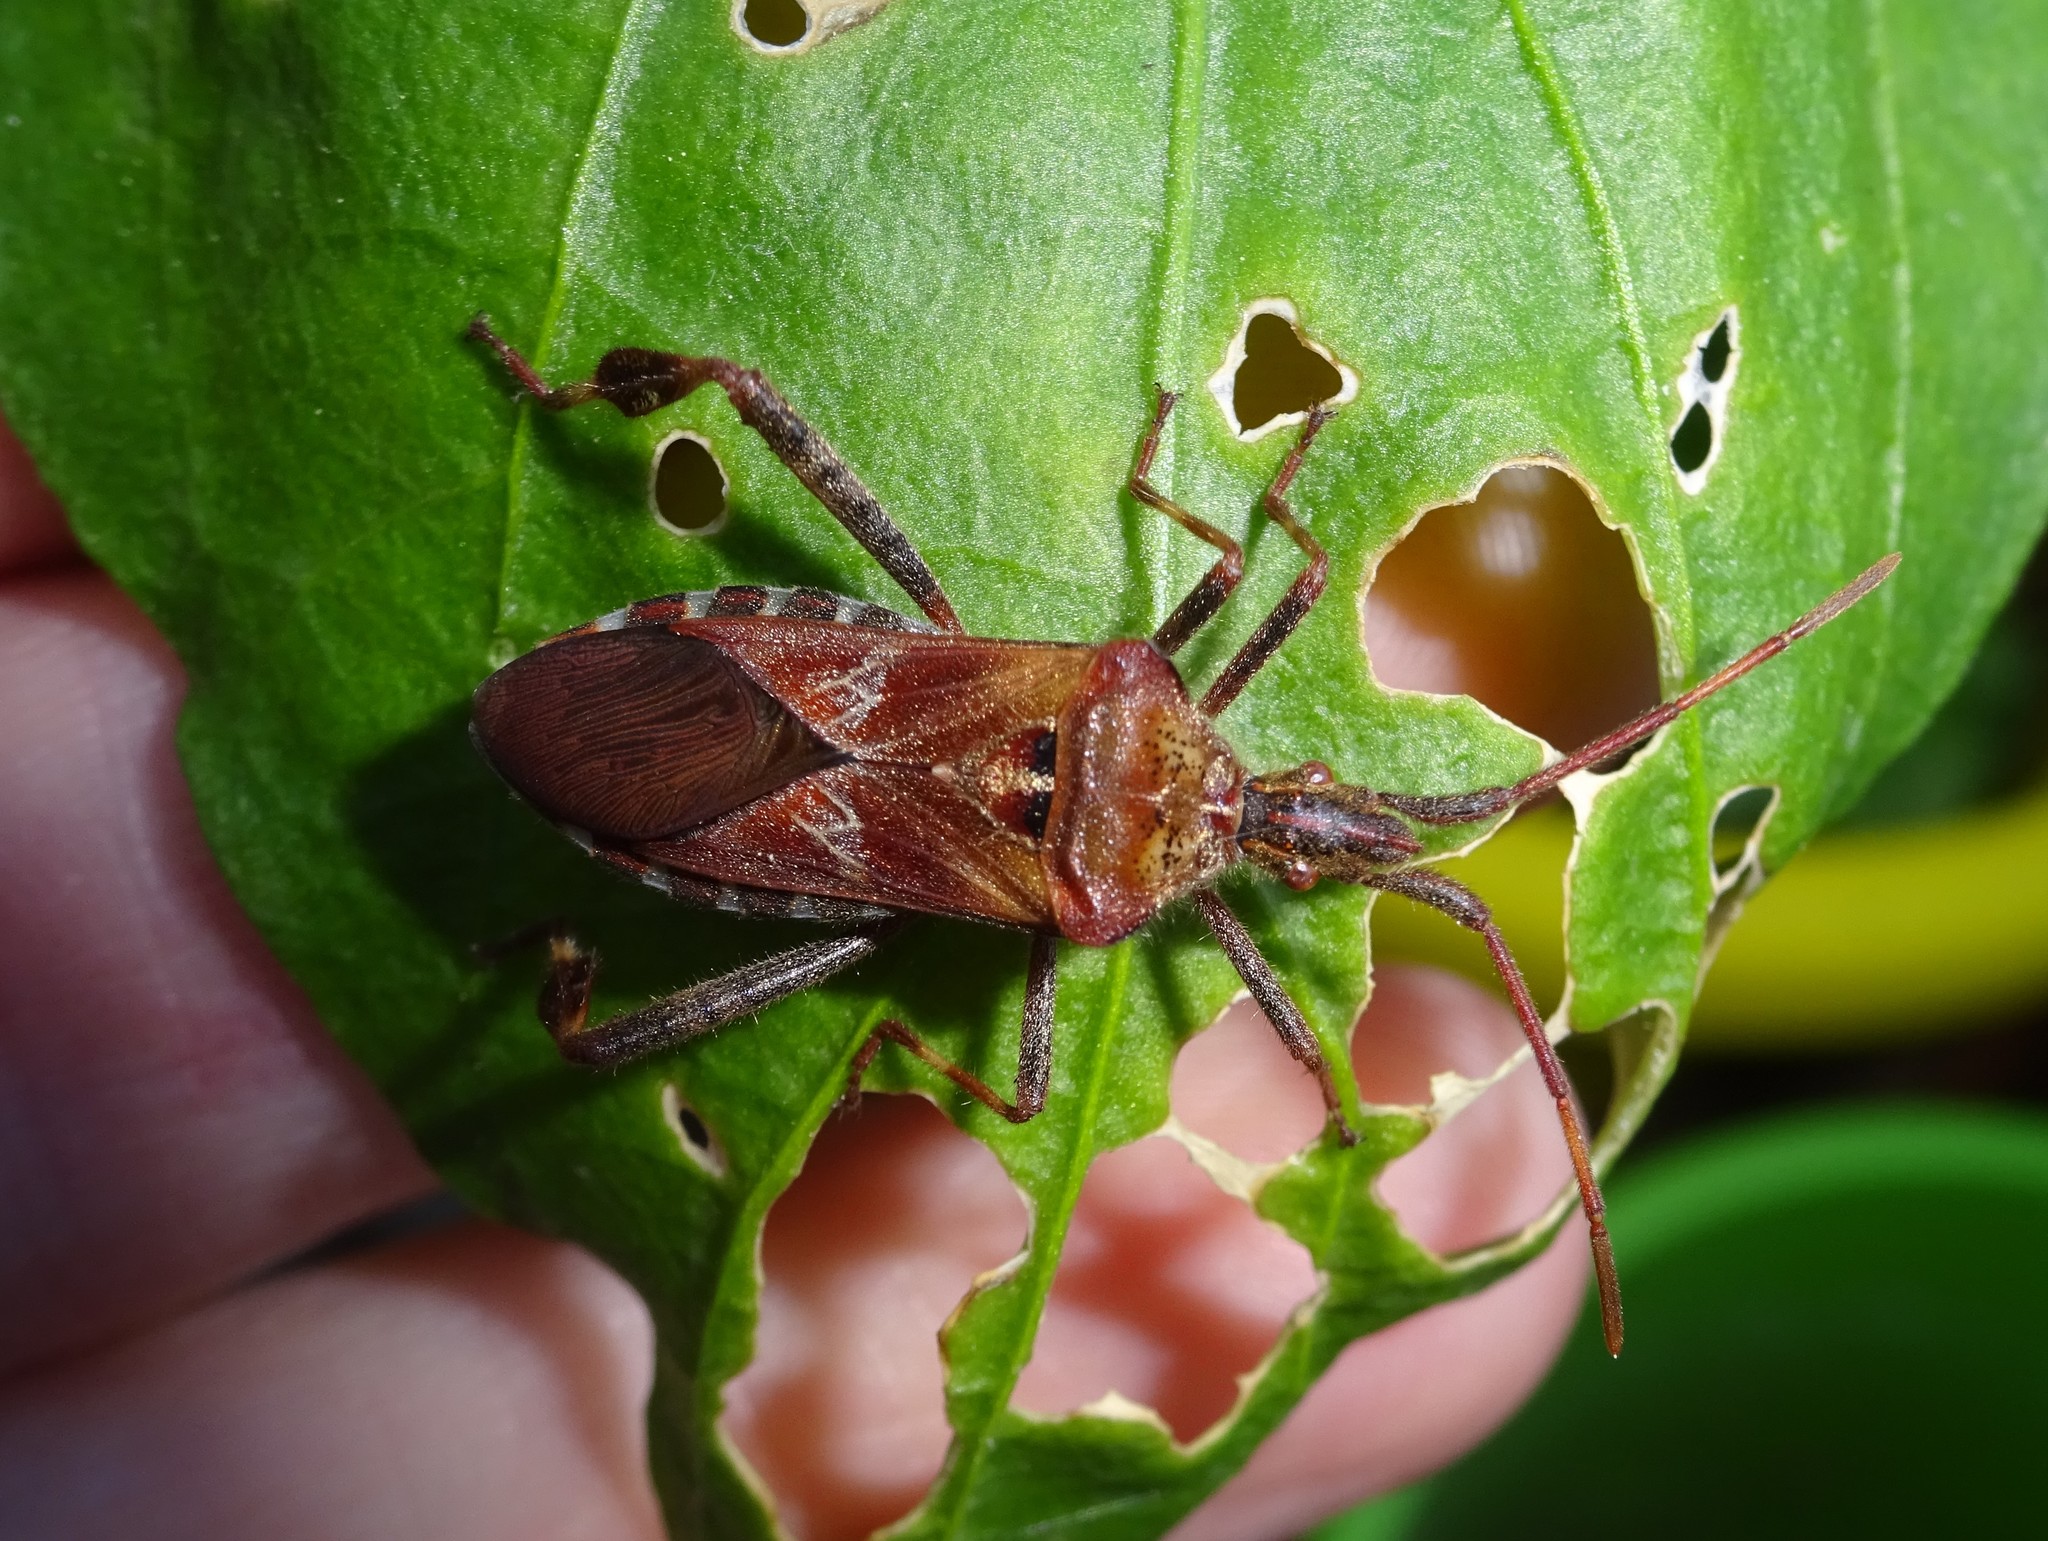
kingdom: Animalia
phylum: Arthropoda
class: Insecta
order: Hemiptera
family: Coreidae
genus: Leptoglossus
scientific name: Leptoglossus occidentalis
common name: Western conifer-seed bug
